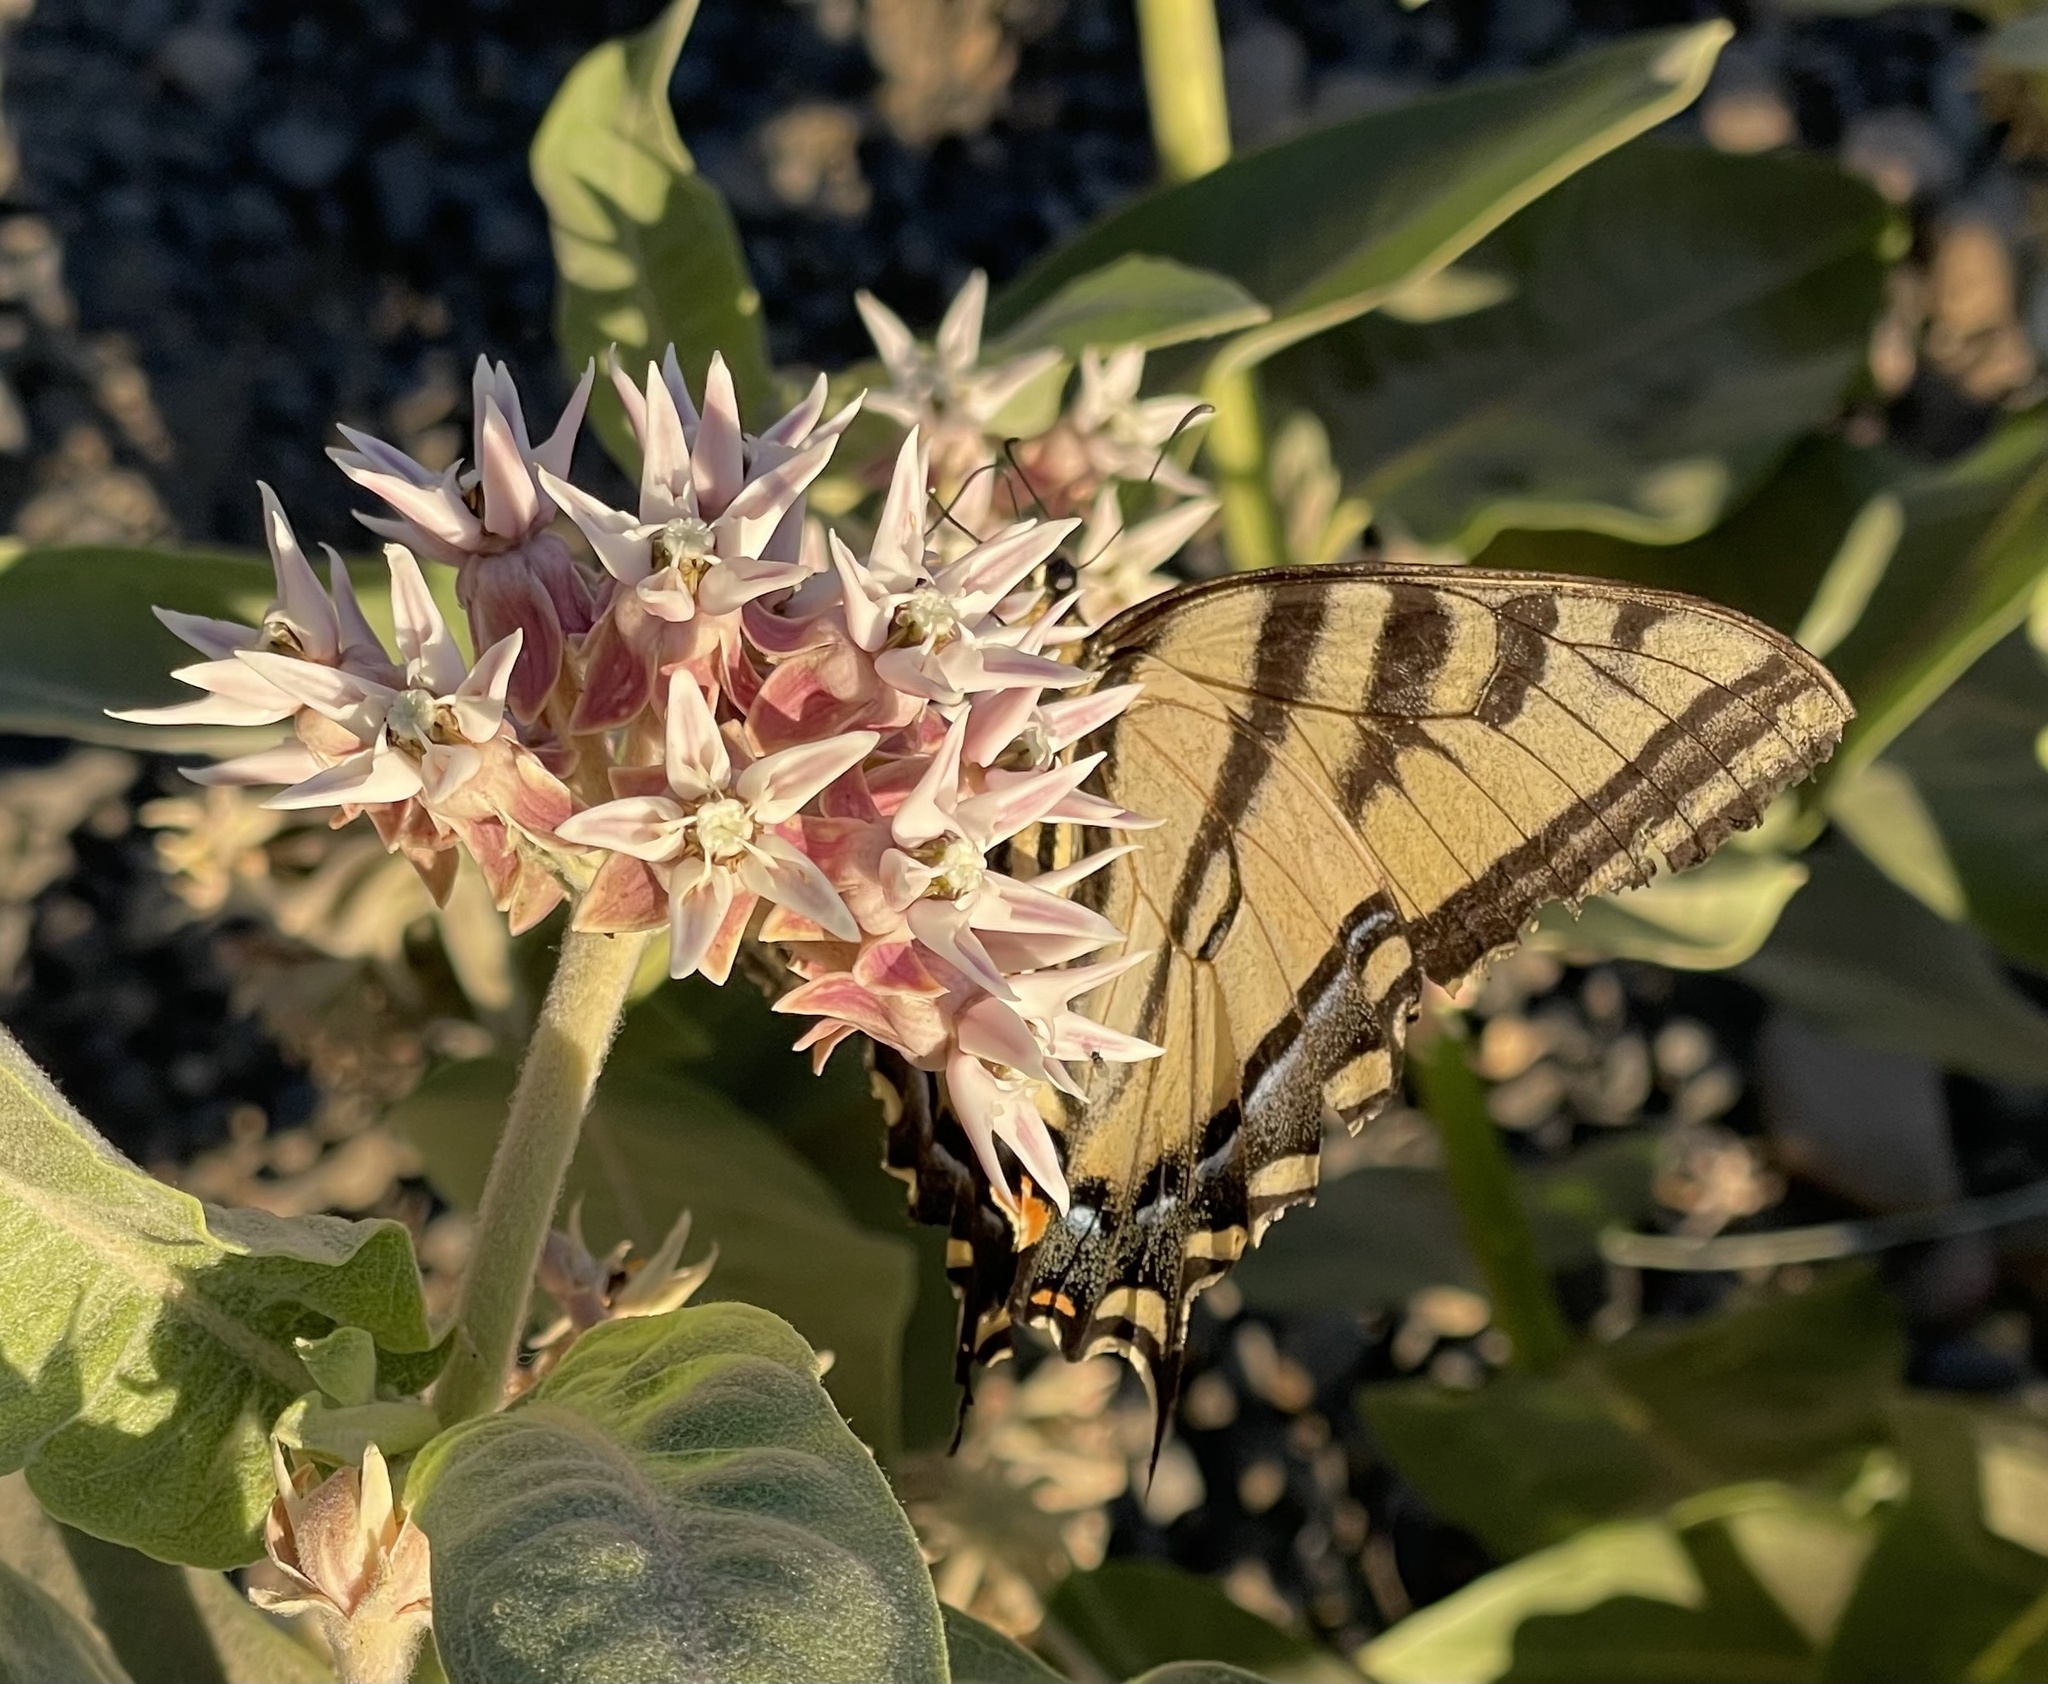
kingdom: Animalia
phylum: Arthropoda
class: Insecta
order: Lepidoptera
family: Papilionidae
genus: Papilio
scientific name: Papilio rutulus
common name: Western tiger swallowtail
